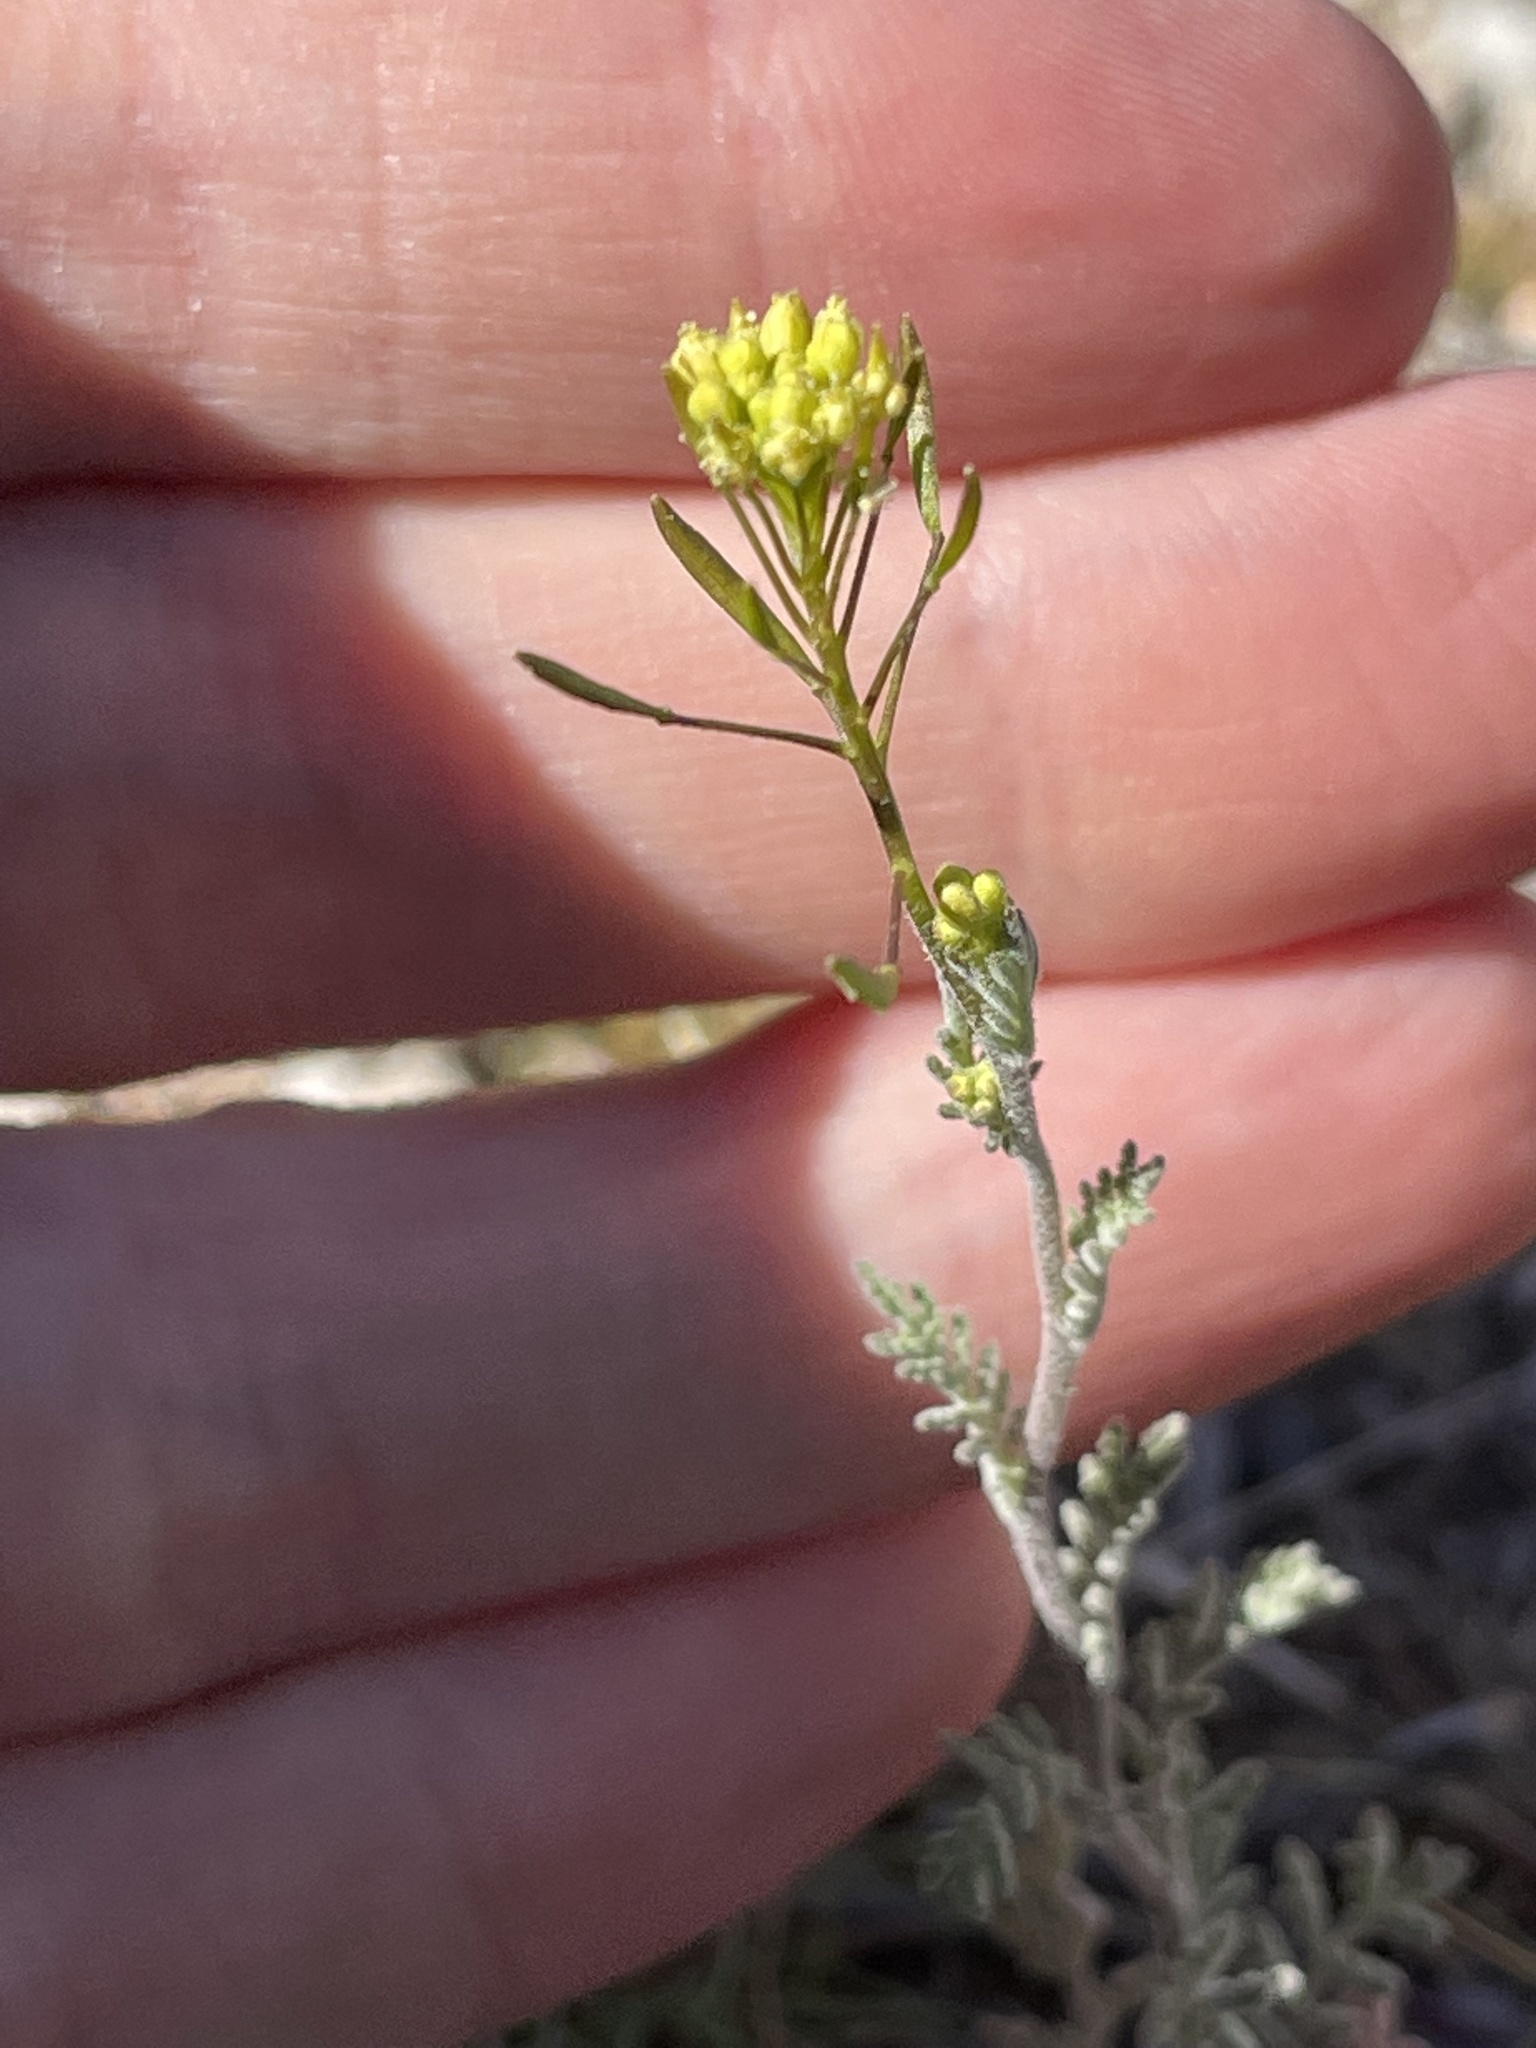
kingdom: Plantae
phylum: Tracheophyta
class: Magnoliopsida
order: Brassicales
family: Brassicaceae
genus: Descurainia
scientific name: Descurainia pinnata
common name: Western tansy mustard
